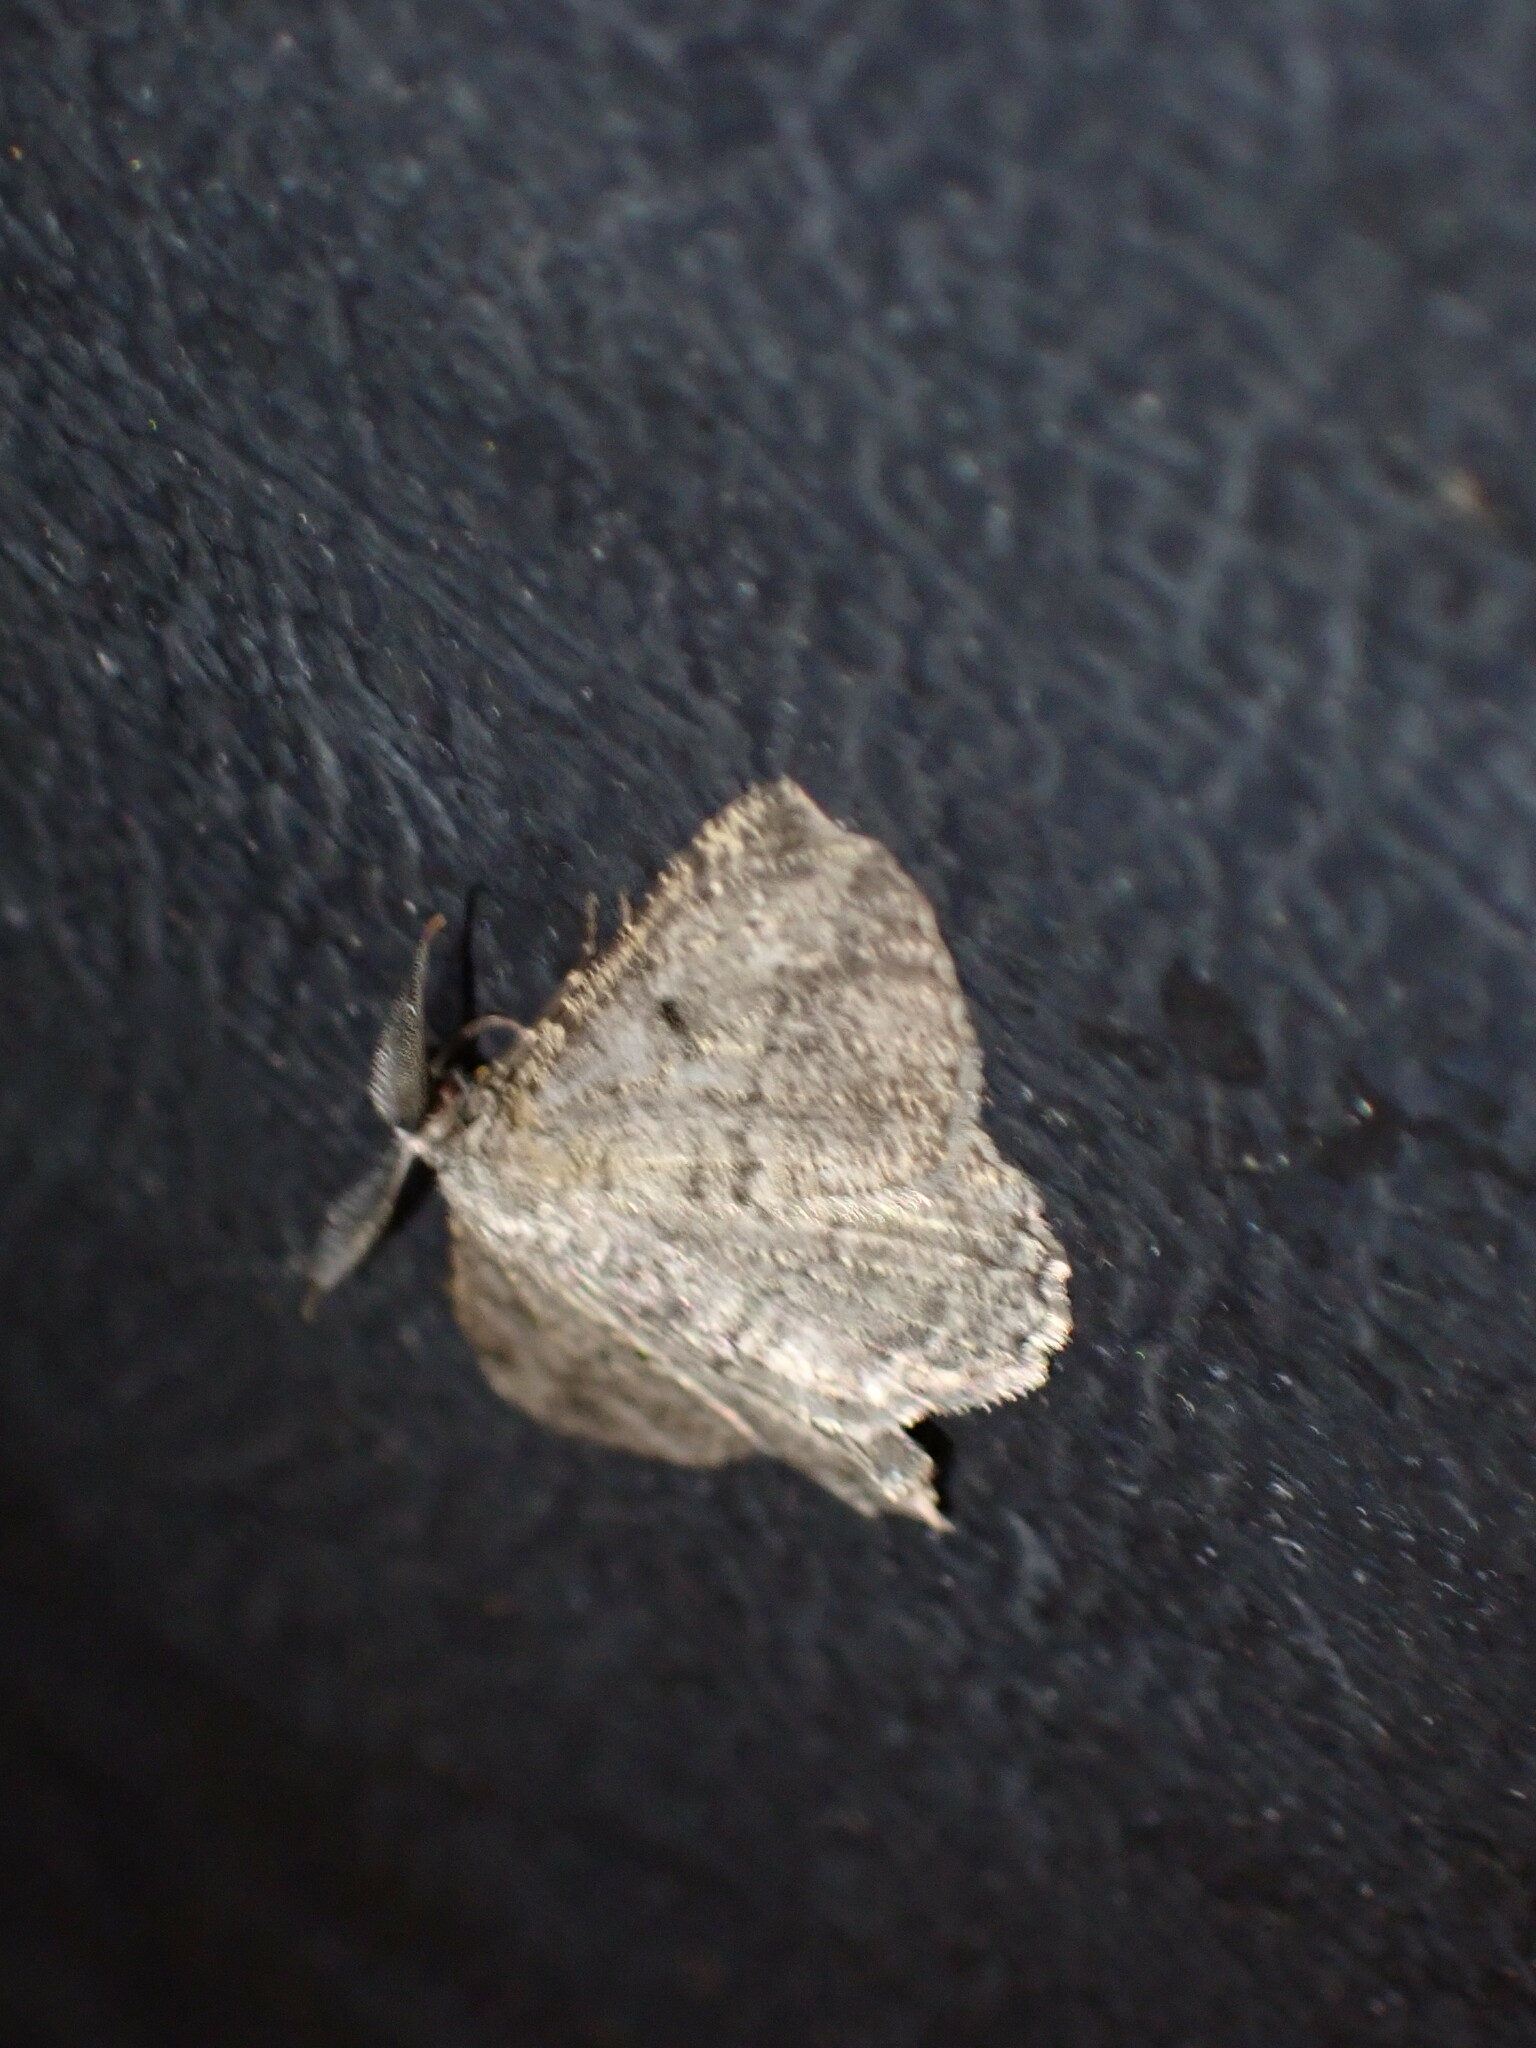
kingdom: Animalia
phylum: Arthropoda
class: Insecta
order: Lepidoptera
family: Geometridae
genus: Peribatodes
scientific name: Peribatodes rhomboidaria
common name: Willow beauty
